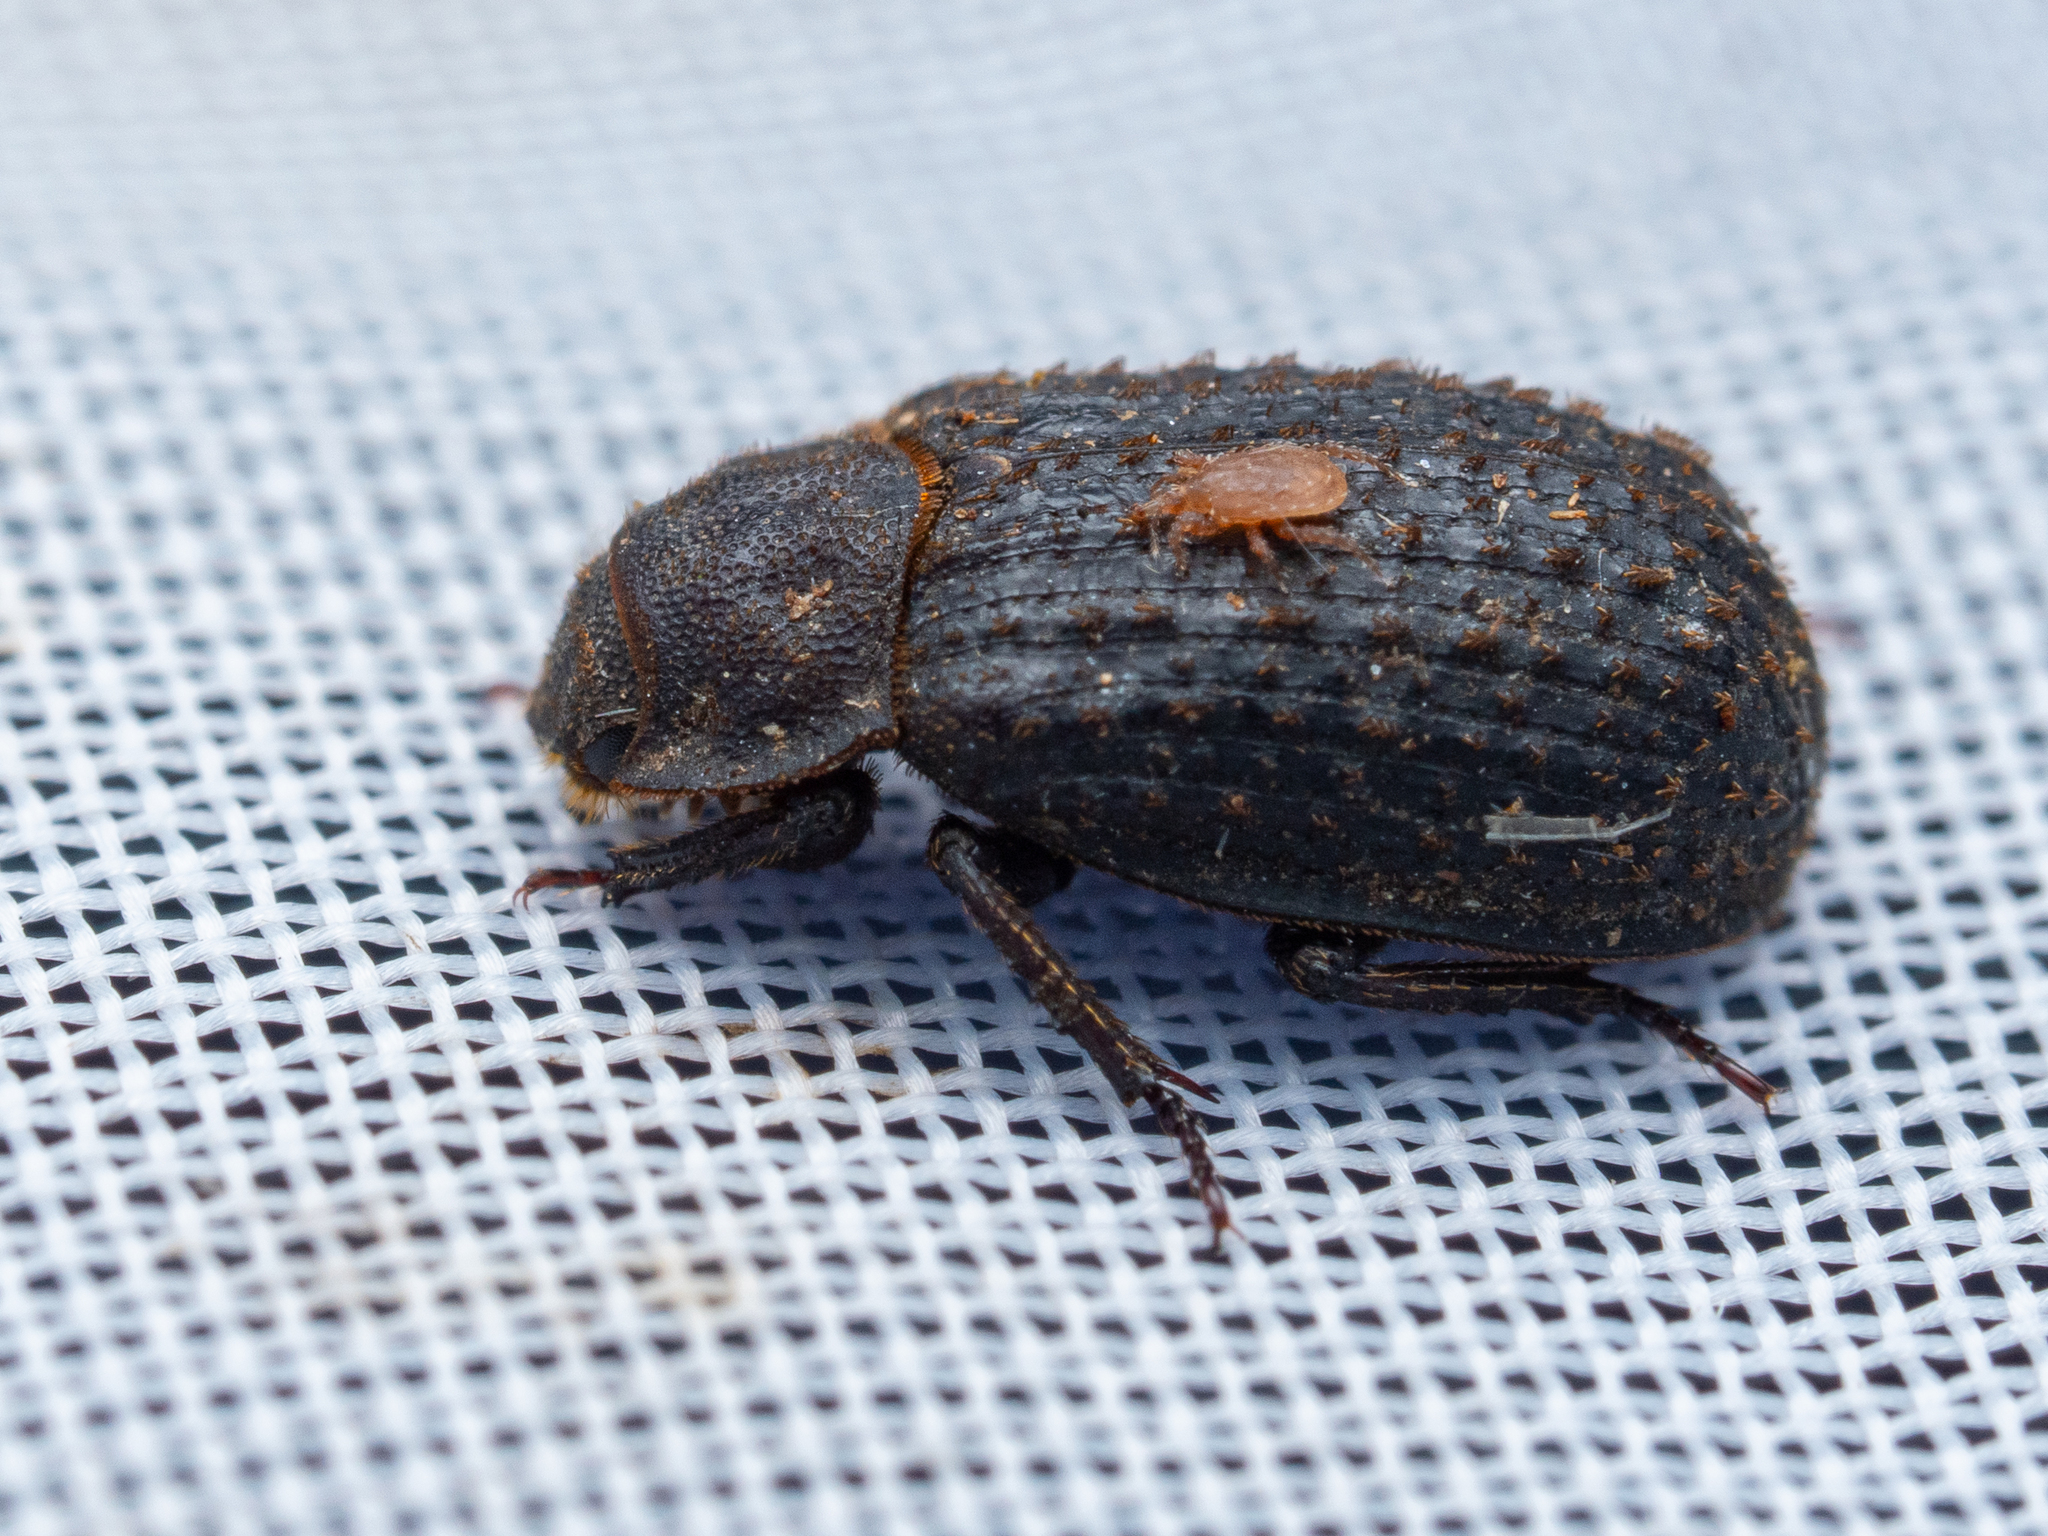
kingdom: Animalia
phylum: Arthropoda
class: Insecta
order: Coleoptera
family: Trogidae
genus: Trox
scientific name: Trox scaber
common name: Hide beetle
